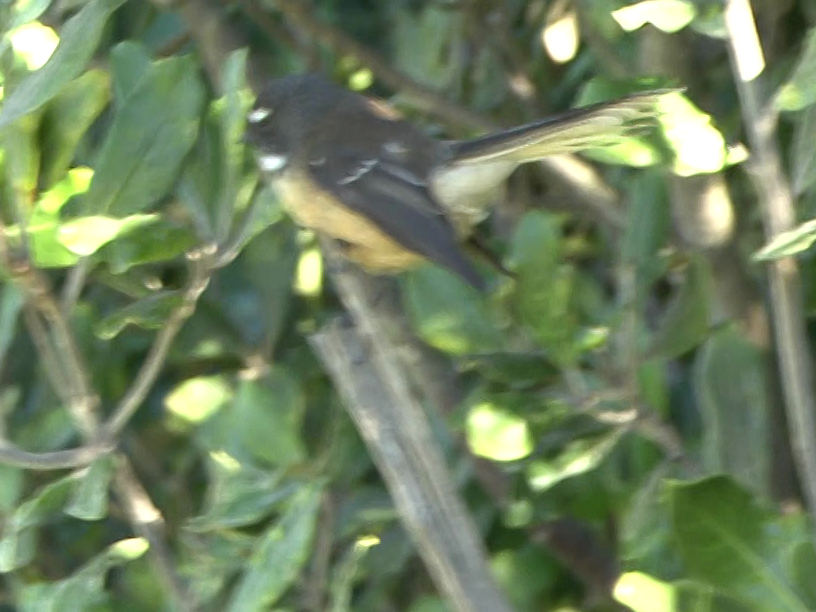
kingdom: Animalia
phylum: Chordata
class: Aves
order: Passeriformes
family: Rhipiduridae
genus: Rhipidura
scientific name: Rhipidura fuliginosa
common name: New zealand fantail
